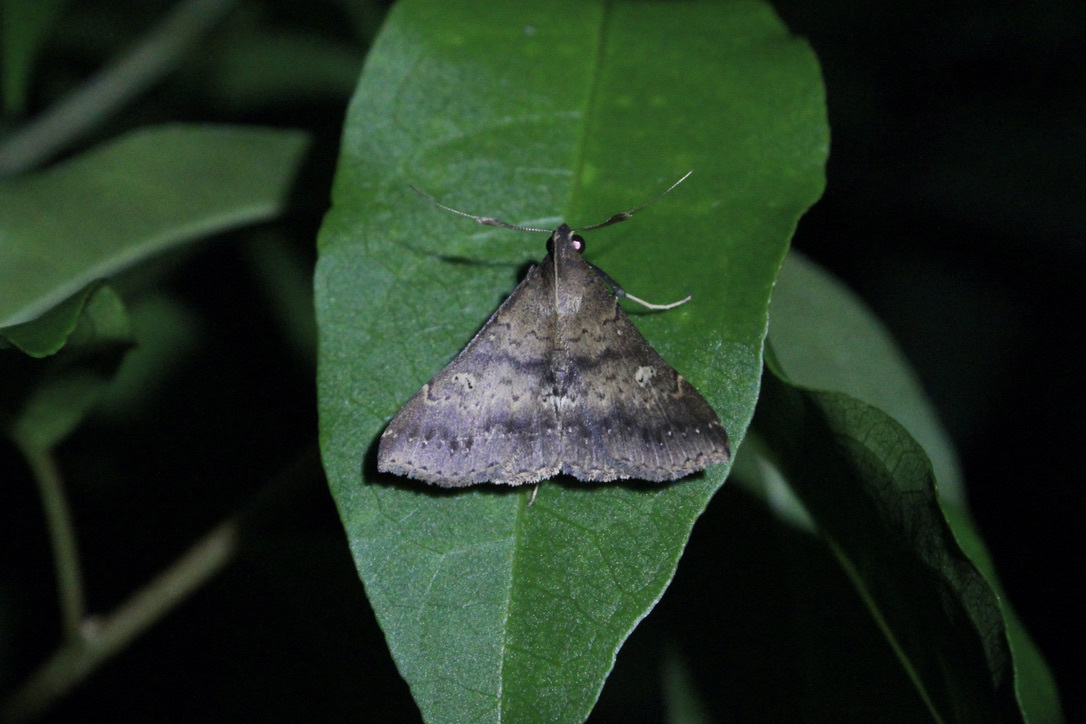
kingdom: Animalia
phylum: Arthropoda
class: Insecta
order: Lepidoptera
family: Erebidae
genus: Renia
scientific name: Renia bipunctata
